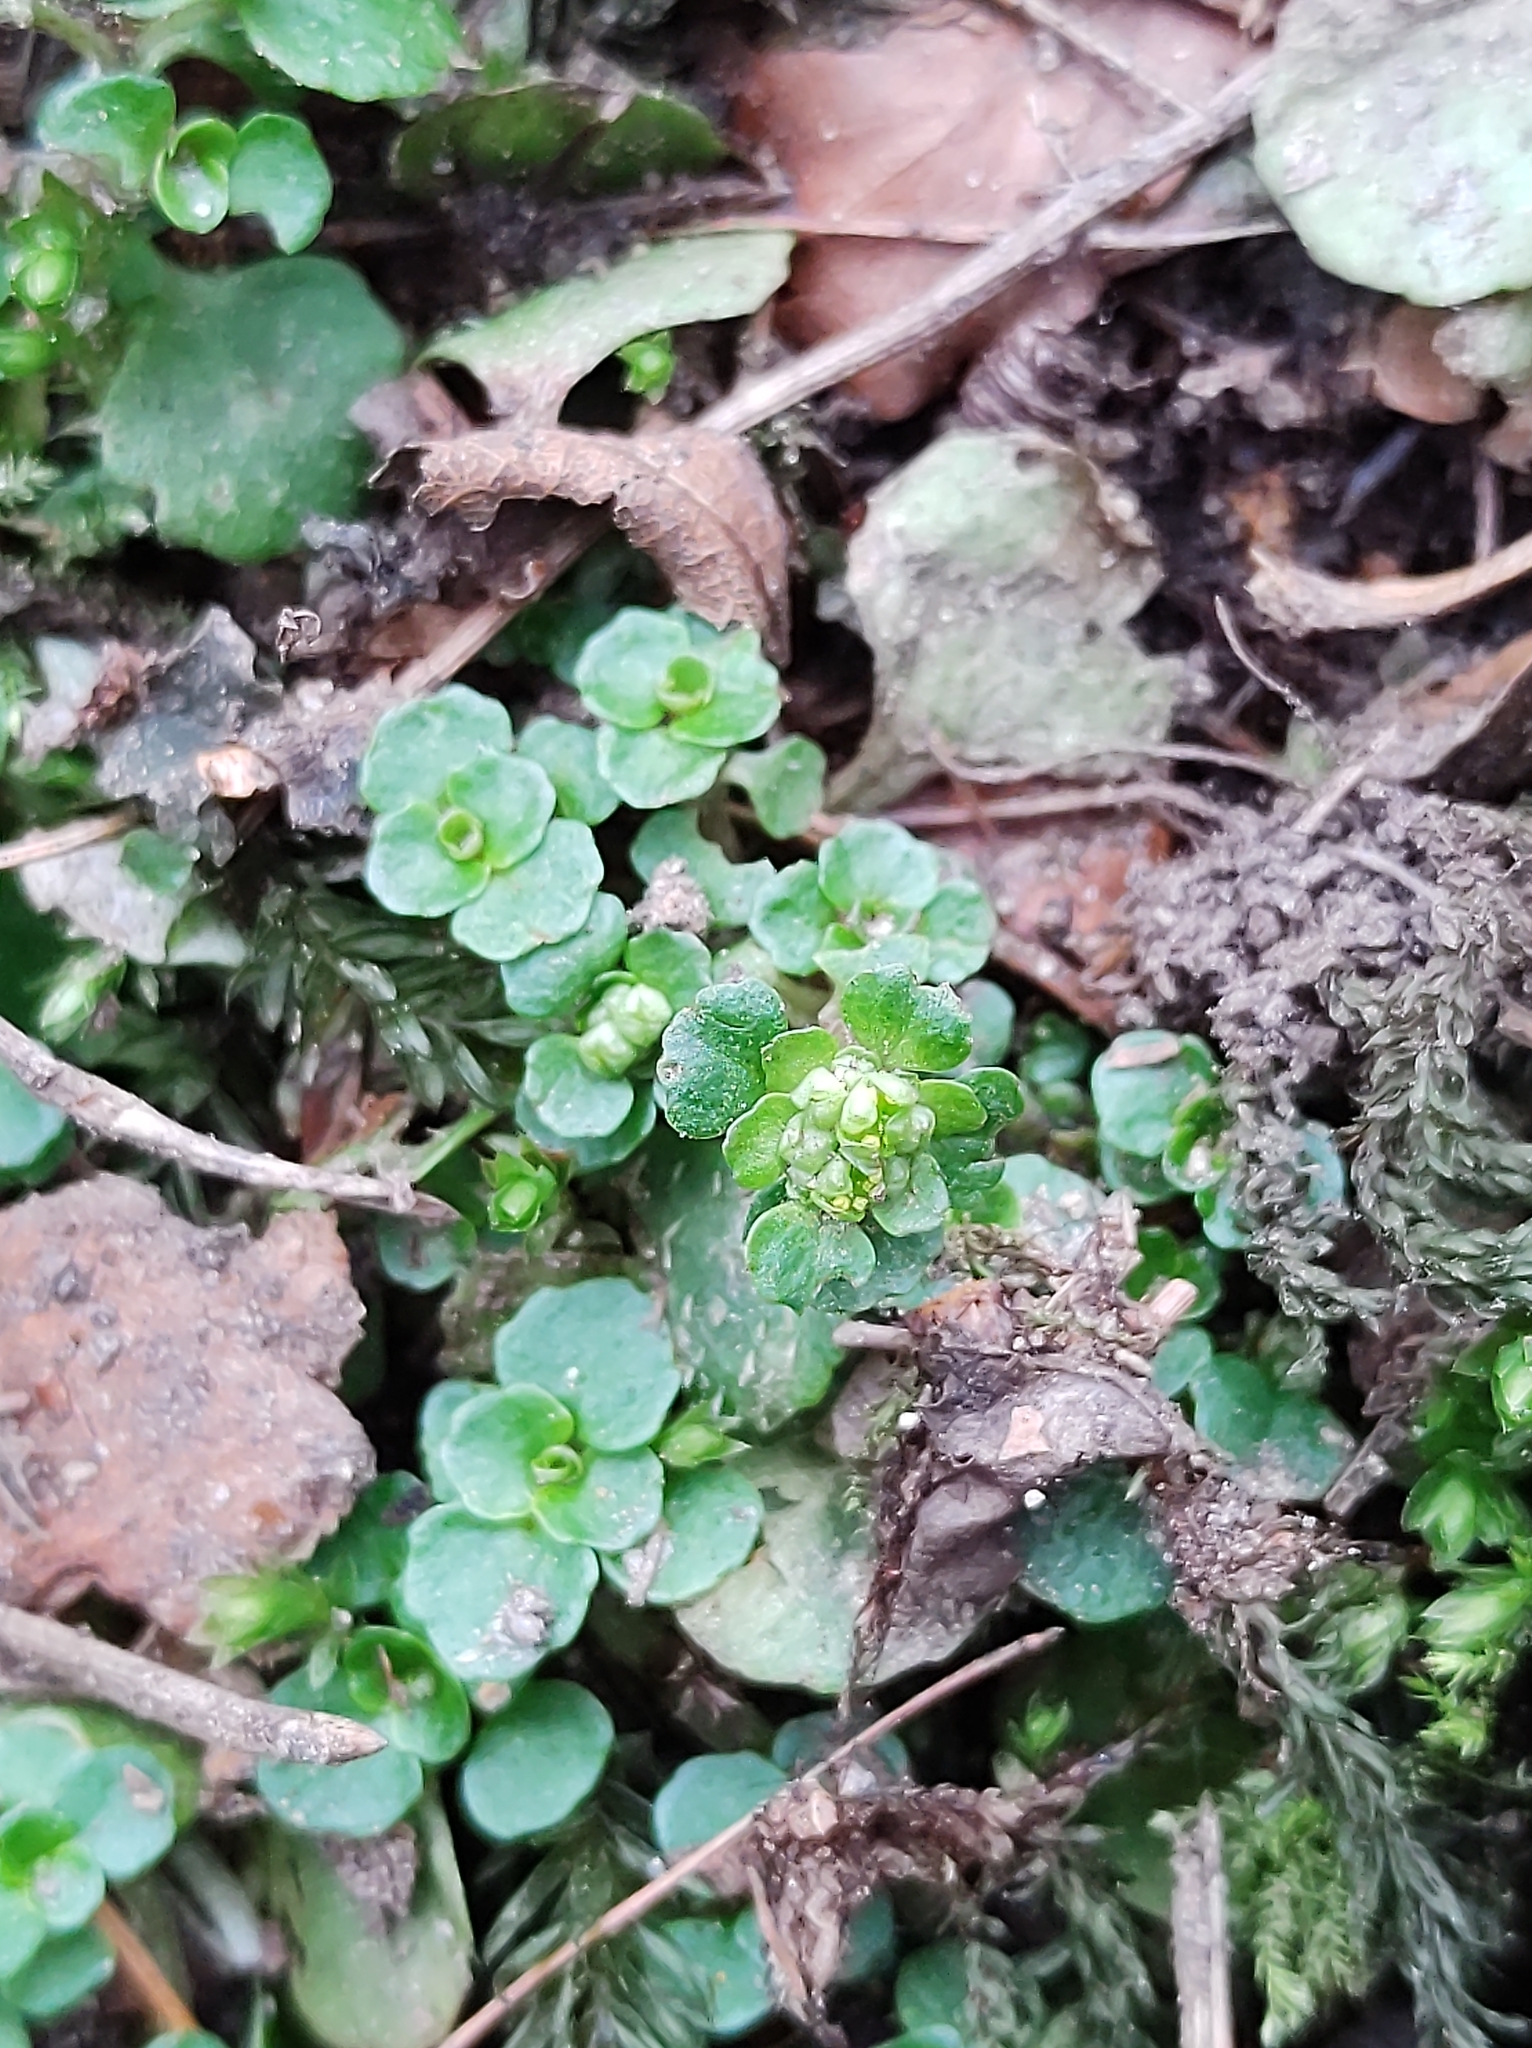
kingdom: Plantae
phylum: Tracheophyta
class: Magnoliopsida
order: Saxifragales
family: Saxifragaceae
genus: Chrysosplenium
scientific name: Chrysosplenium oppositifolium
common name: Opposite-leaved golden-saxifrage
